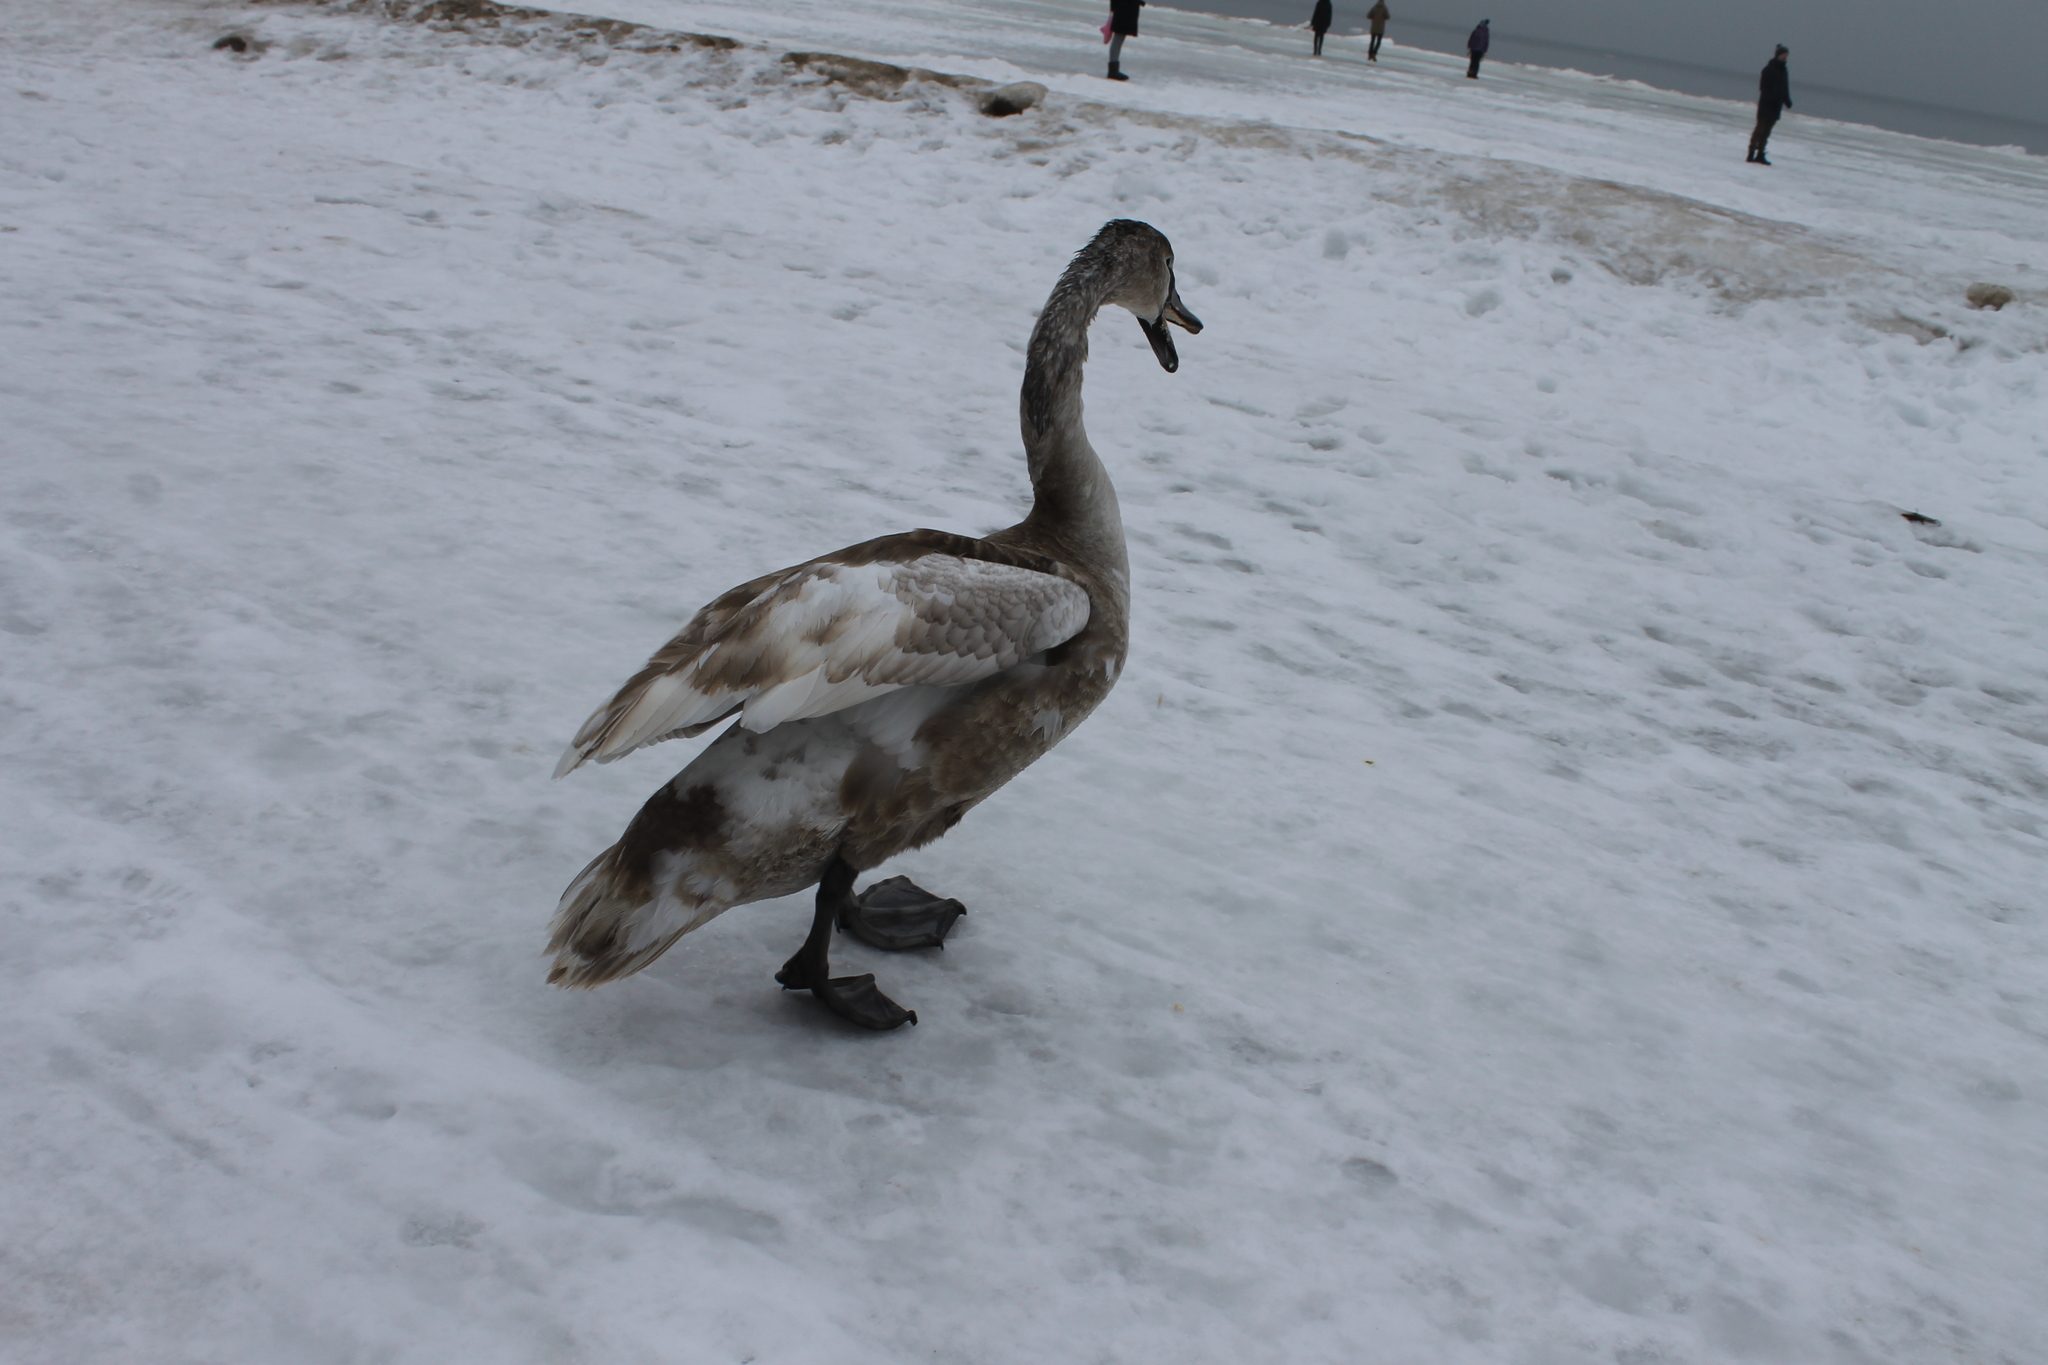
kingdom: Animalia
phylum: Chordata
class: Aves
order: Anseriformes
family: Anatidae
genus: Cygnus
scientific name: Cygnus olor
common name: Mute swan
